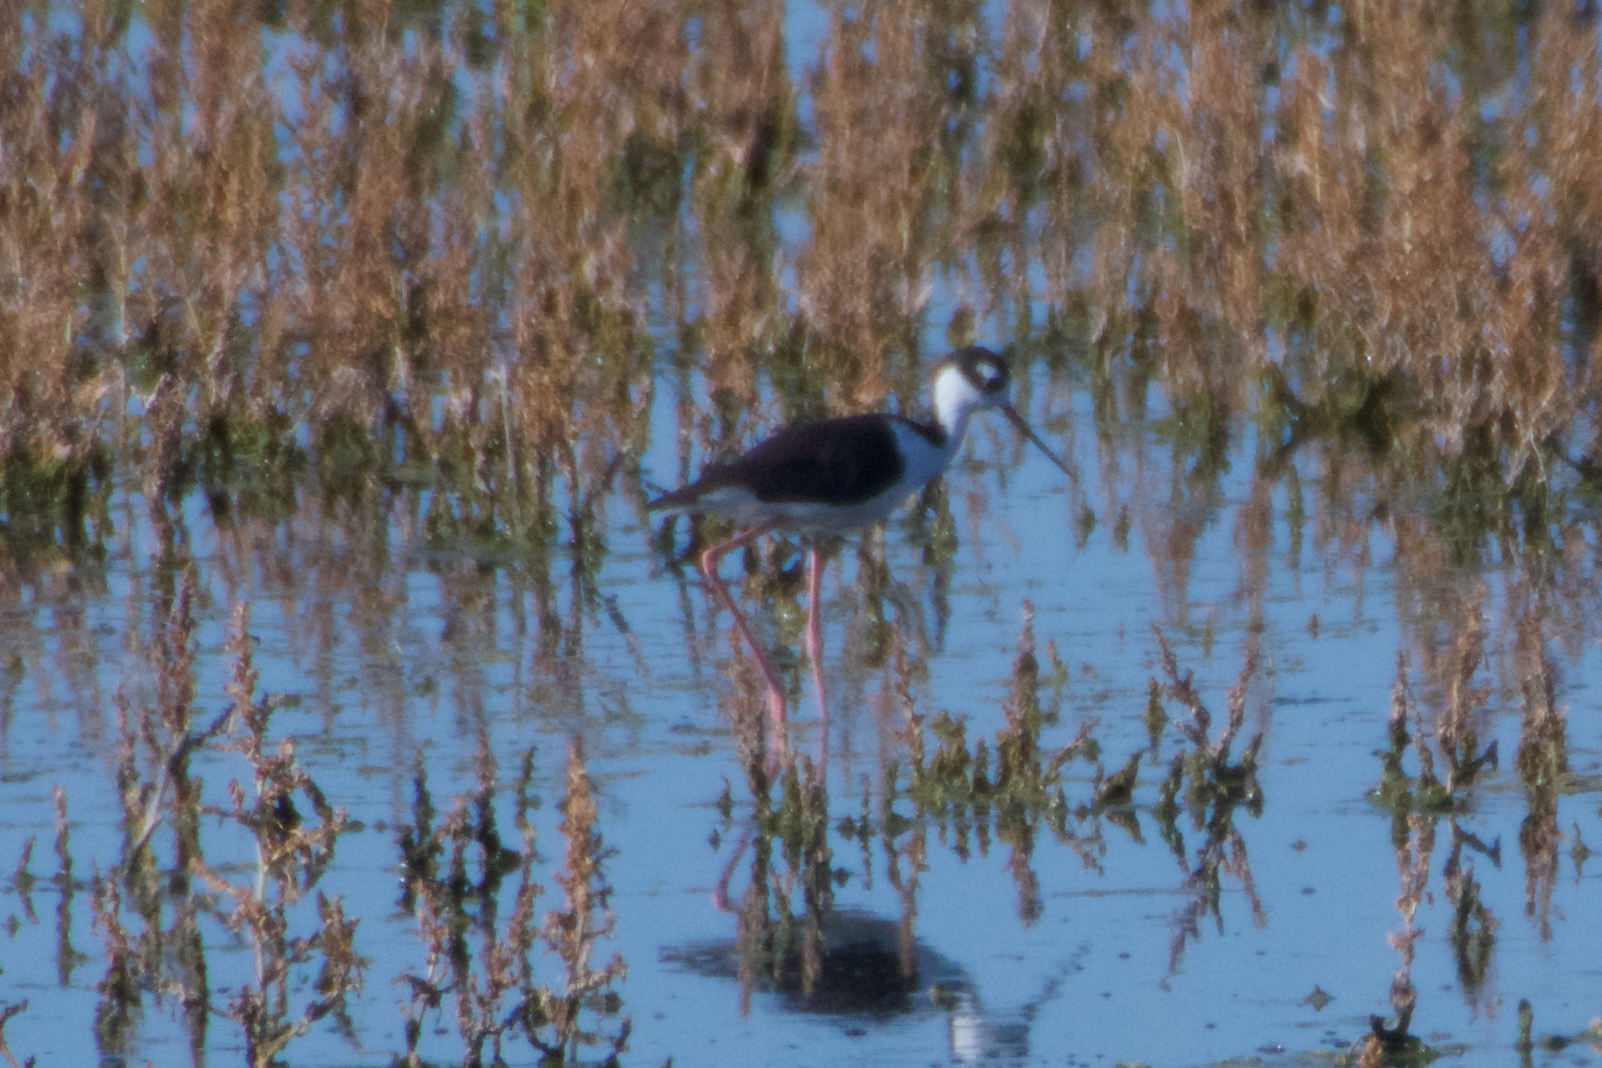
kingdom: Animalia
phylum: Chordata
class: Aves
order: Charadriiformes
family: Recurvirostridae
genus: Himantopus
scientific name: Himantopus mexicanus
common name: Black-necked stilt
